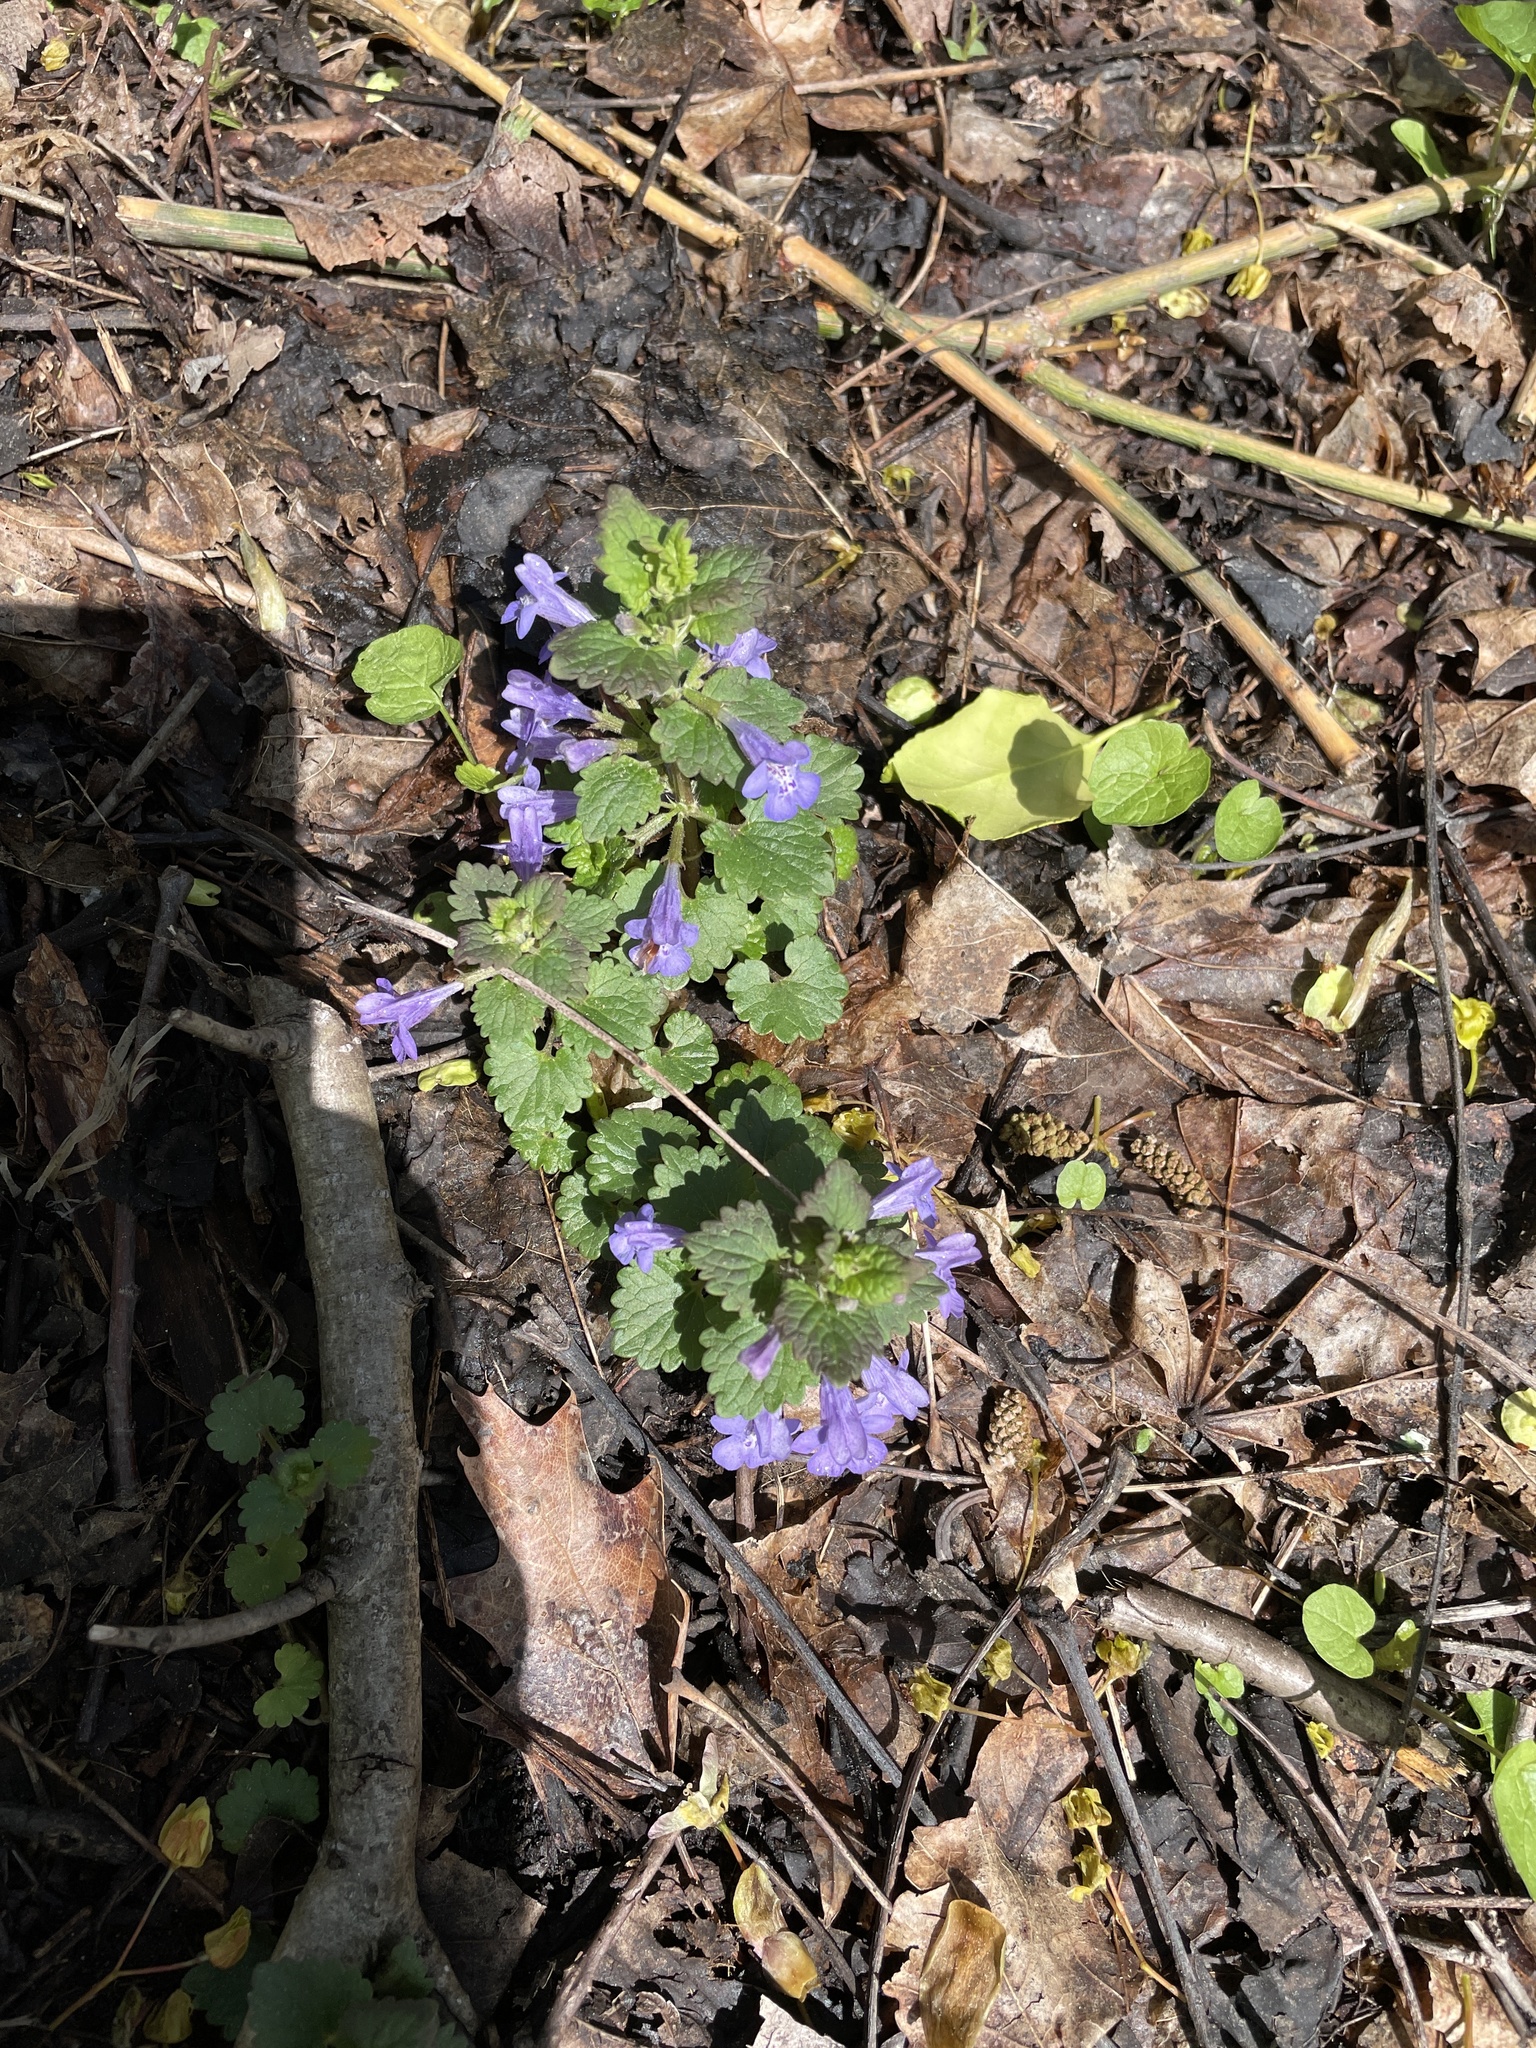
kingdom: Plantae
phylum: Tracheophyta
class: Magnoliopsida
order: Lamiales
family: Lamiaceae
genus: Glechoma
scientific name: Glechoma hederacea
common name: Ground ivy
